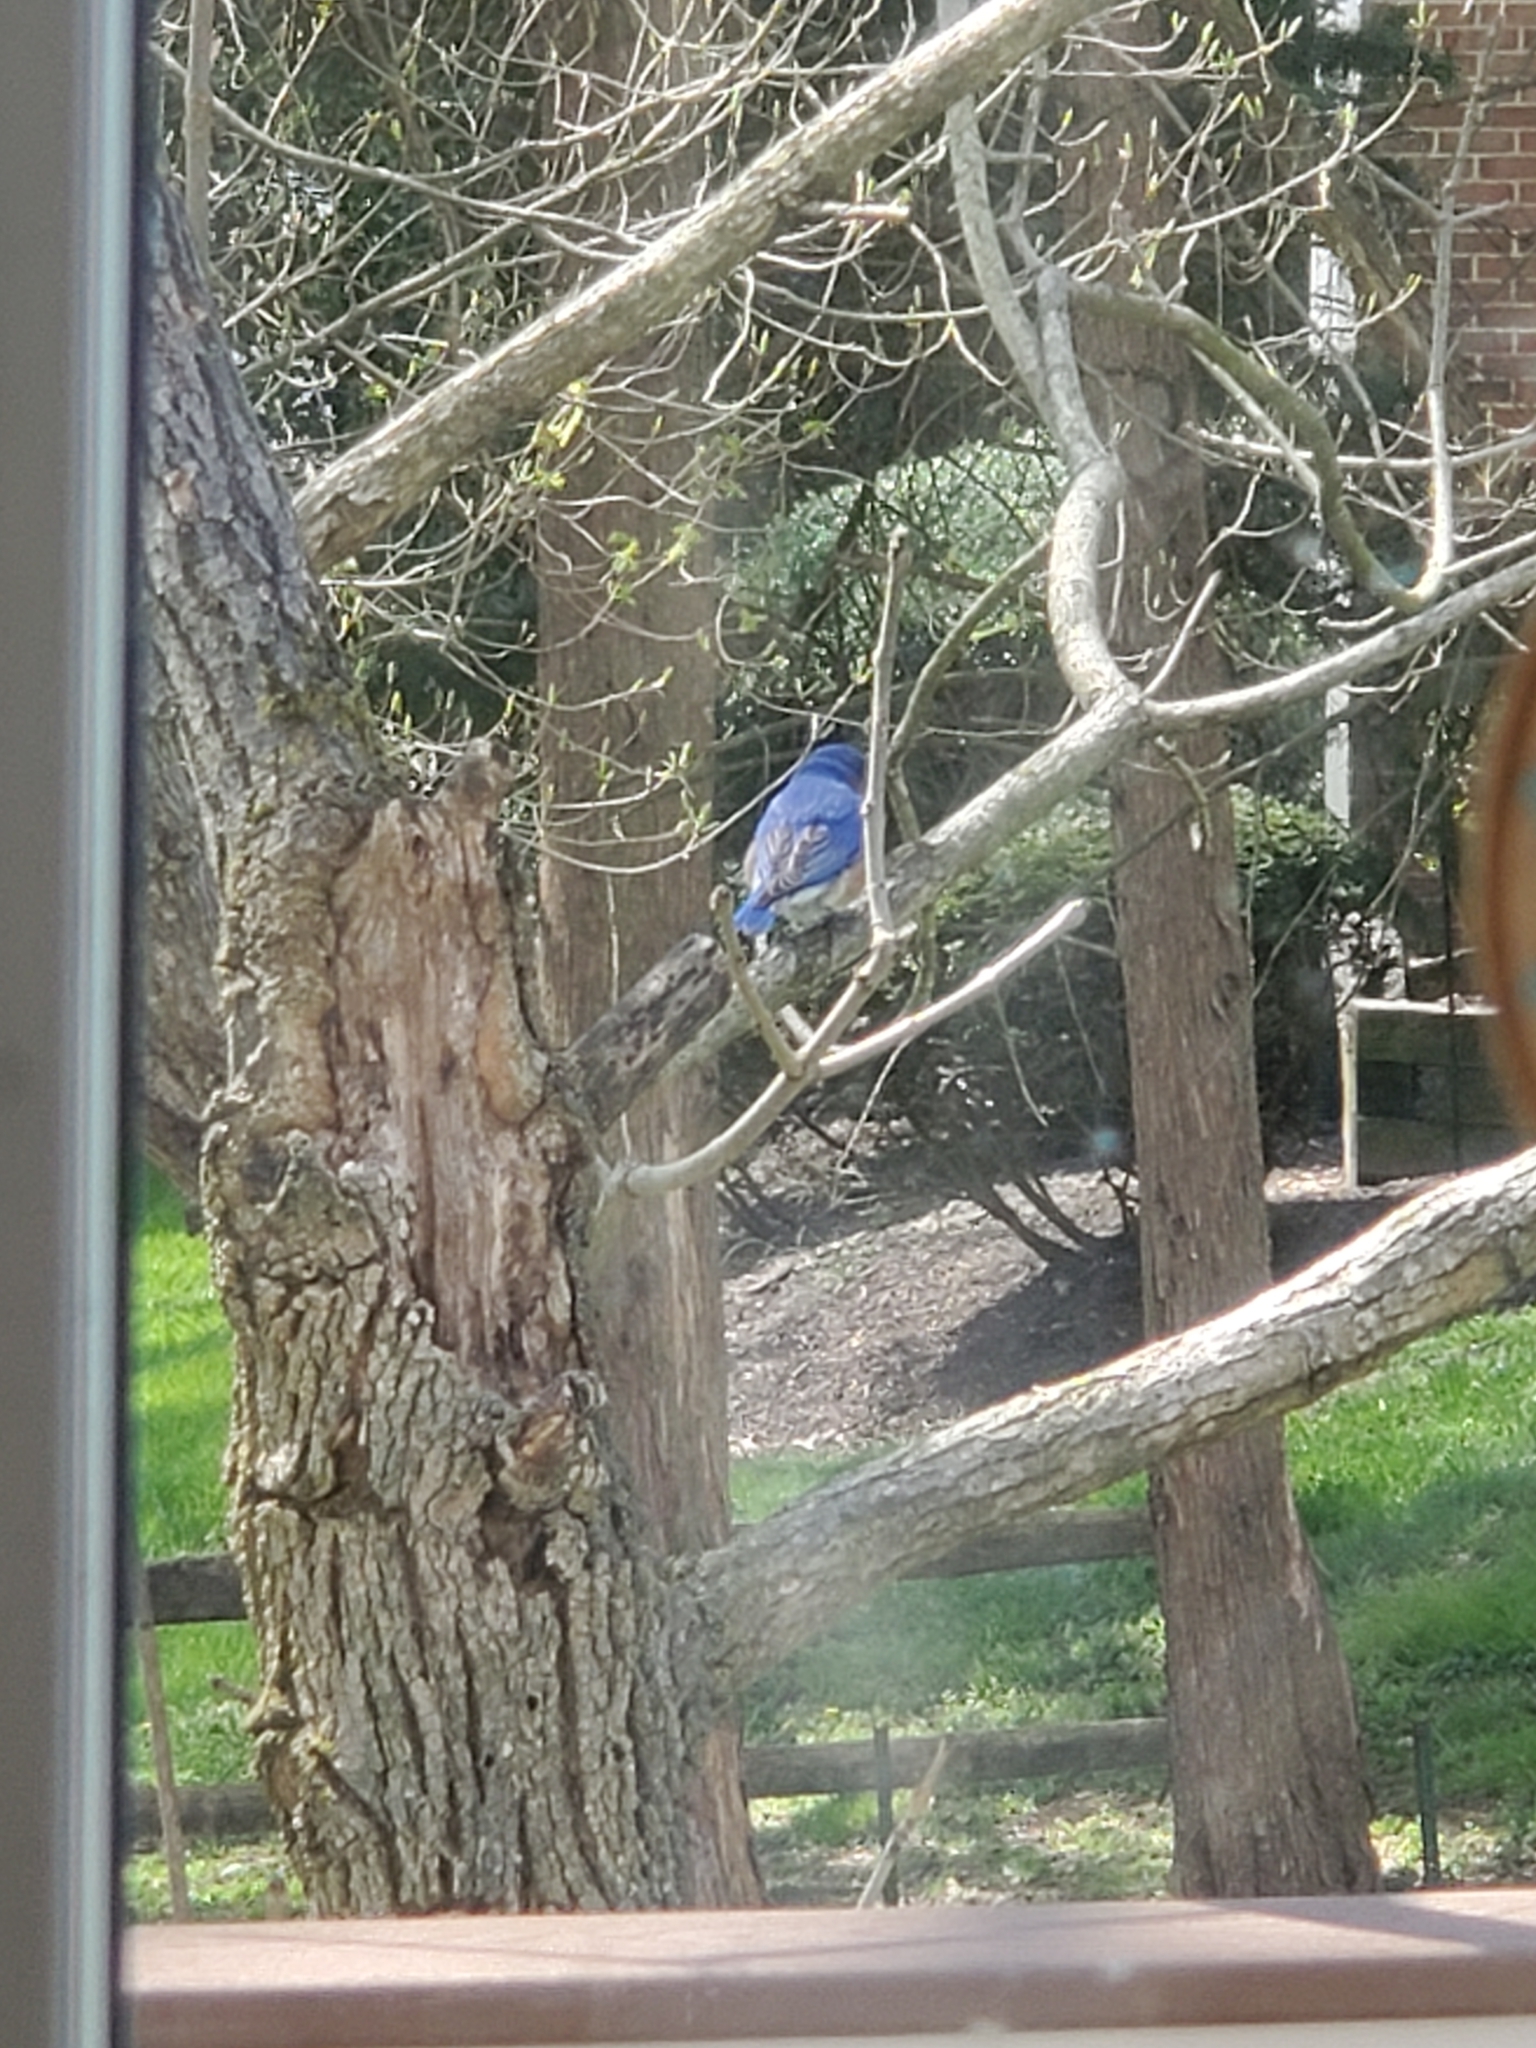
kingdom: Animalia
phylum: Chordata
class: Aves
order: Passeriformes
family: Turdidae
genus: Sialia
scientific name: Sialia sialis
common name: Eastern bluebird
